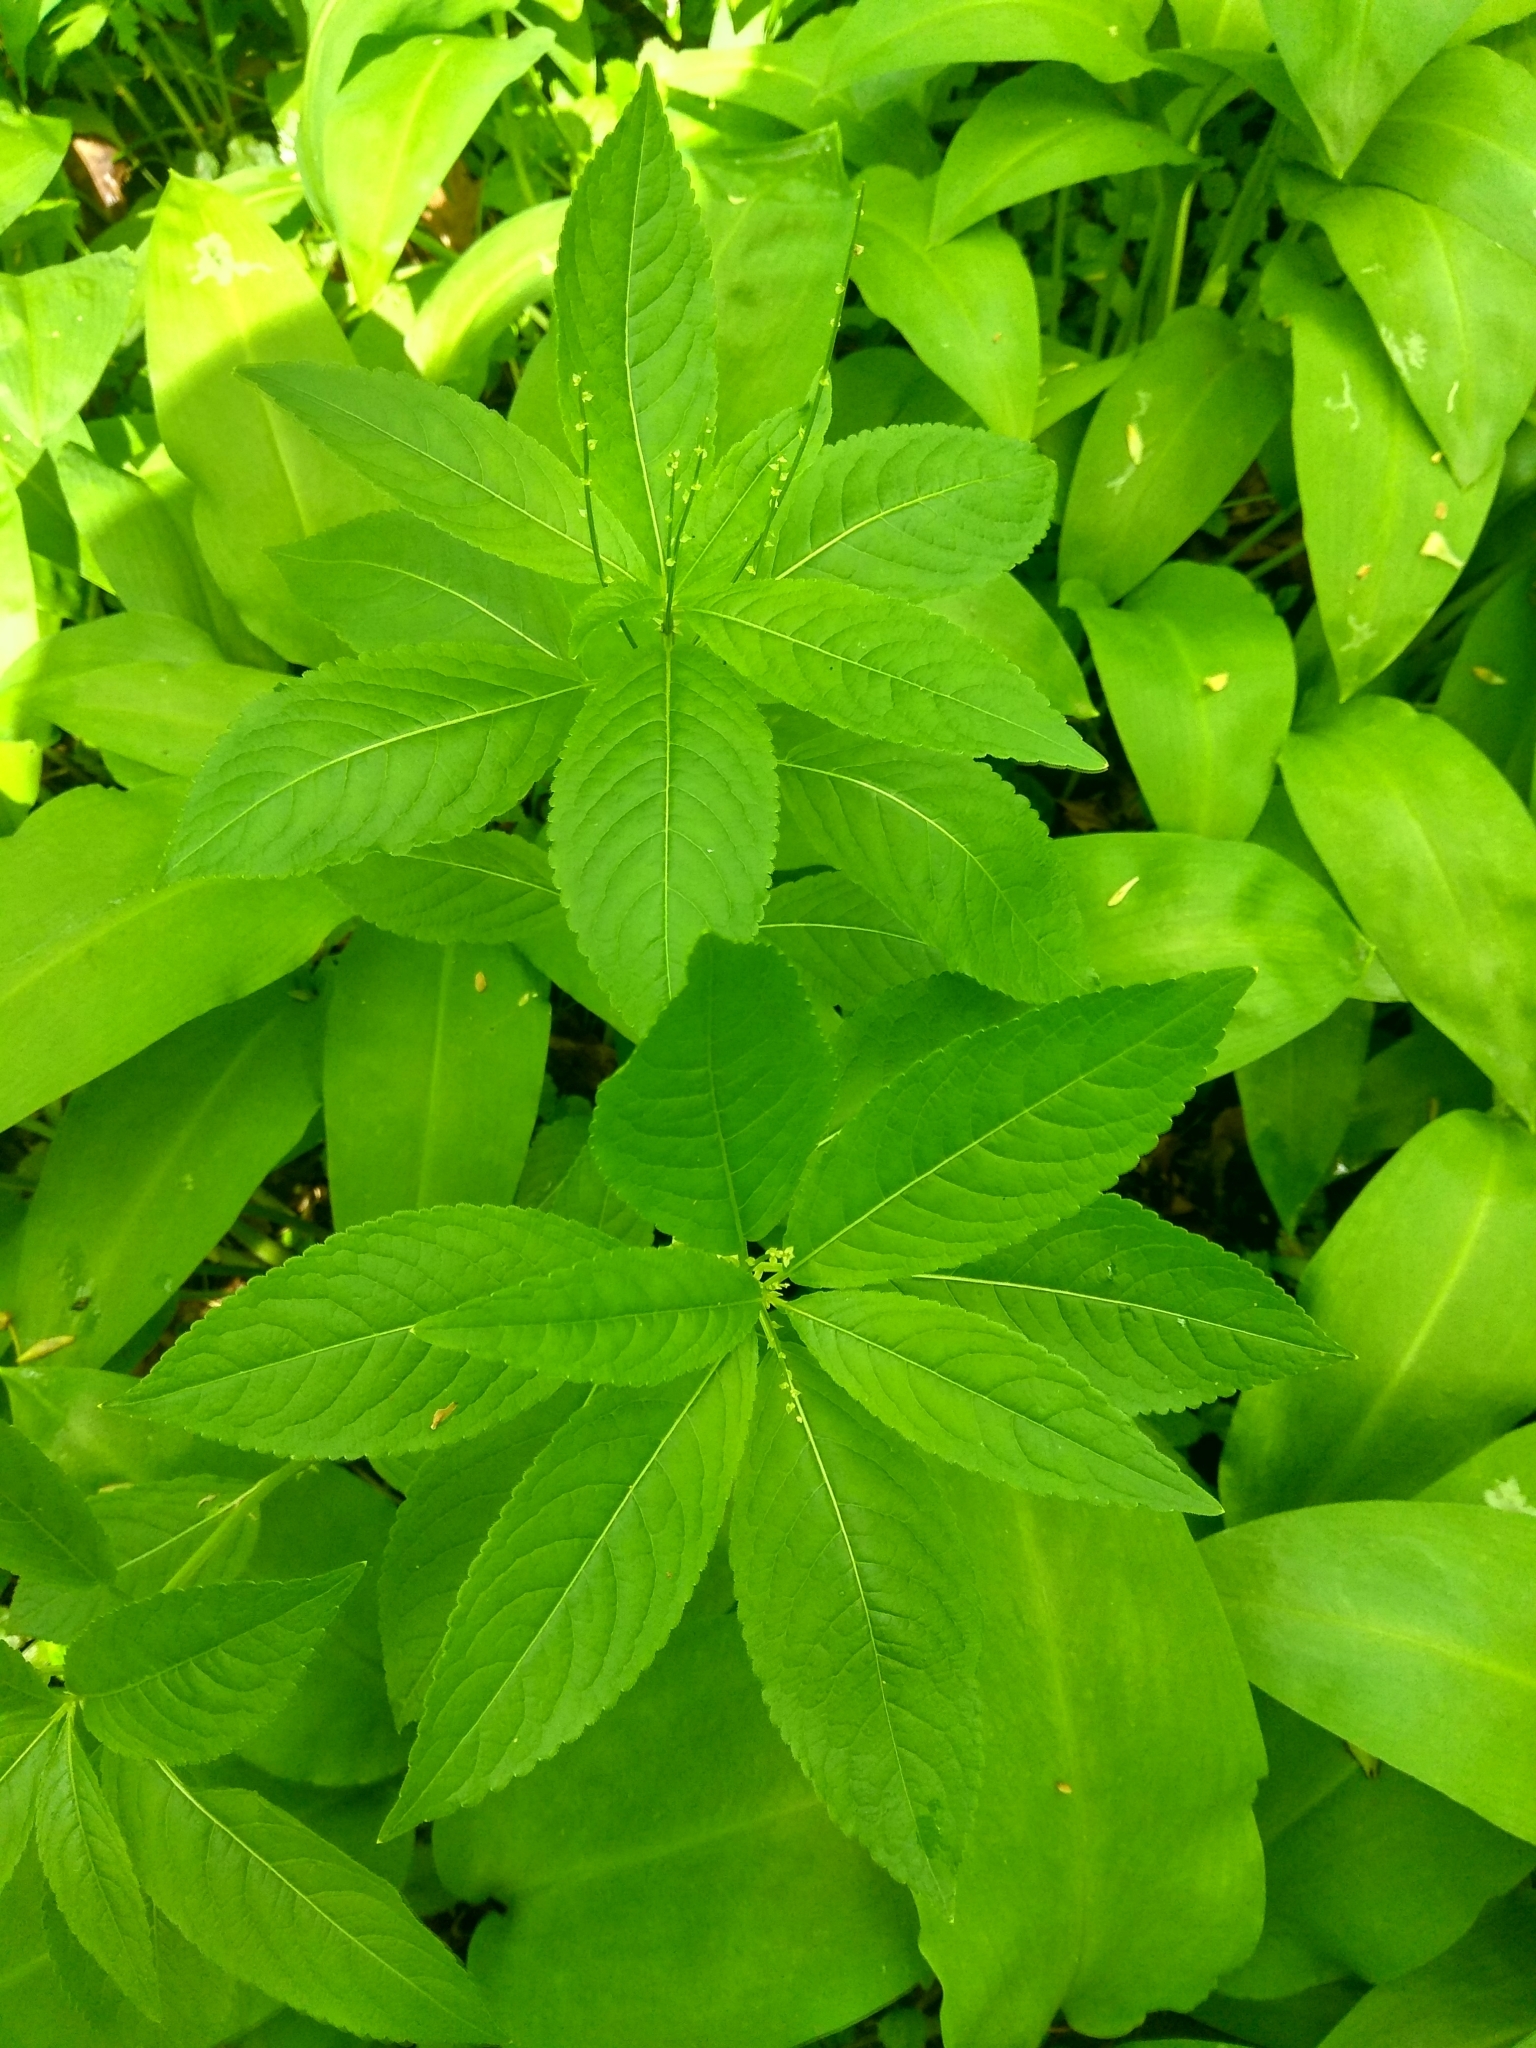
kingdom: Plantae
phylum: Tracheophyta
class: Magnoliopsida
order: Malpighiales
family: Euphorbiaceae
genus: Mercurialis
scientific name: Mercurialis perennis
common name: Dog mercury
